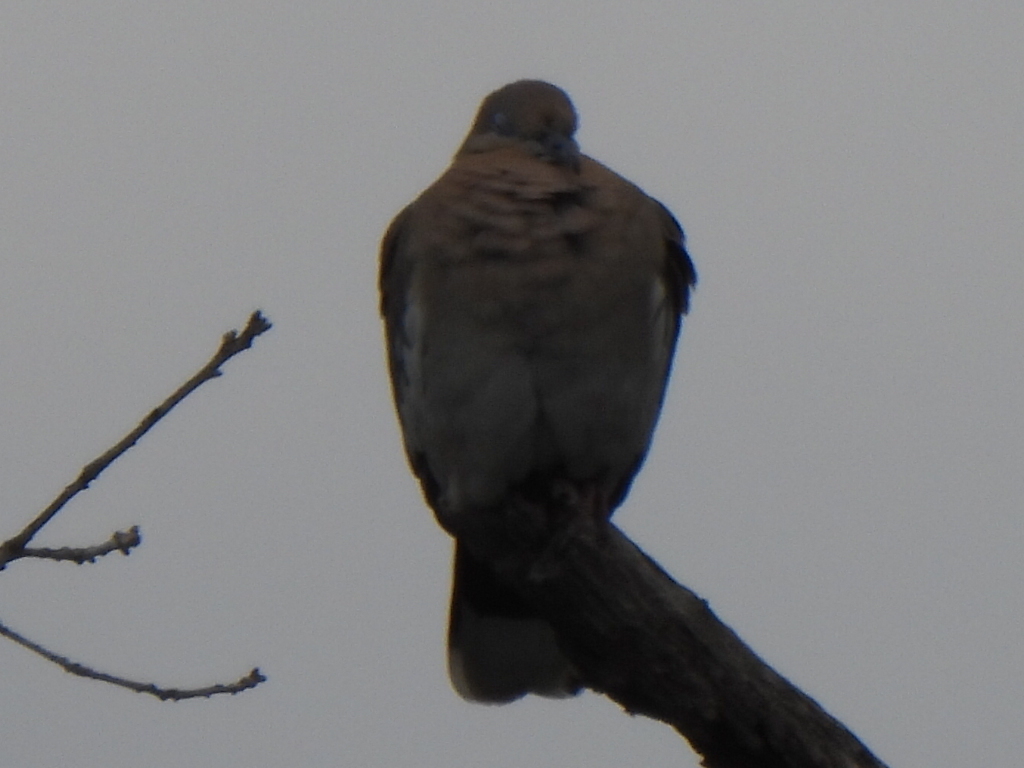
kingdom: Animalia
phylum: Chordata
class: Aves
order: Columbiformes
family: Columbidae
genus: Zenaida
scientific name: Zenaida asiatica
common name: White-winged dove
